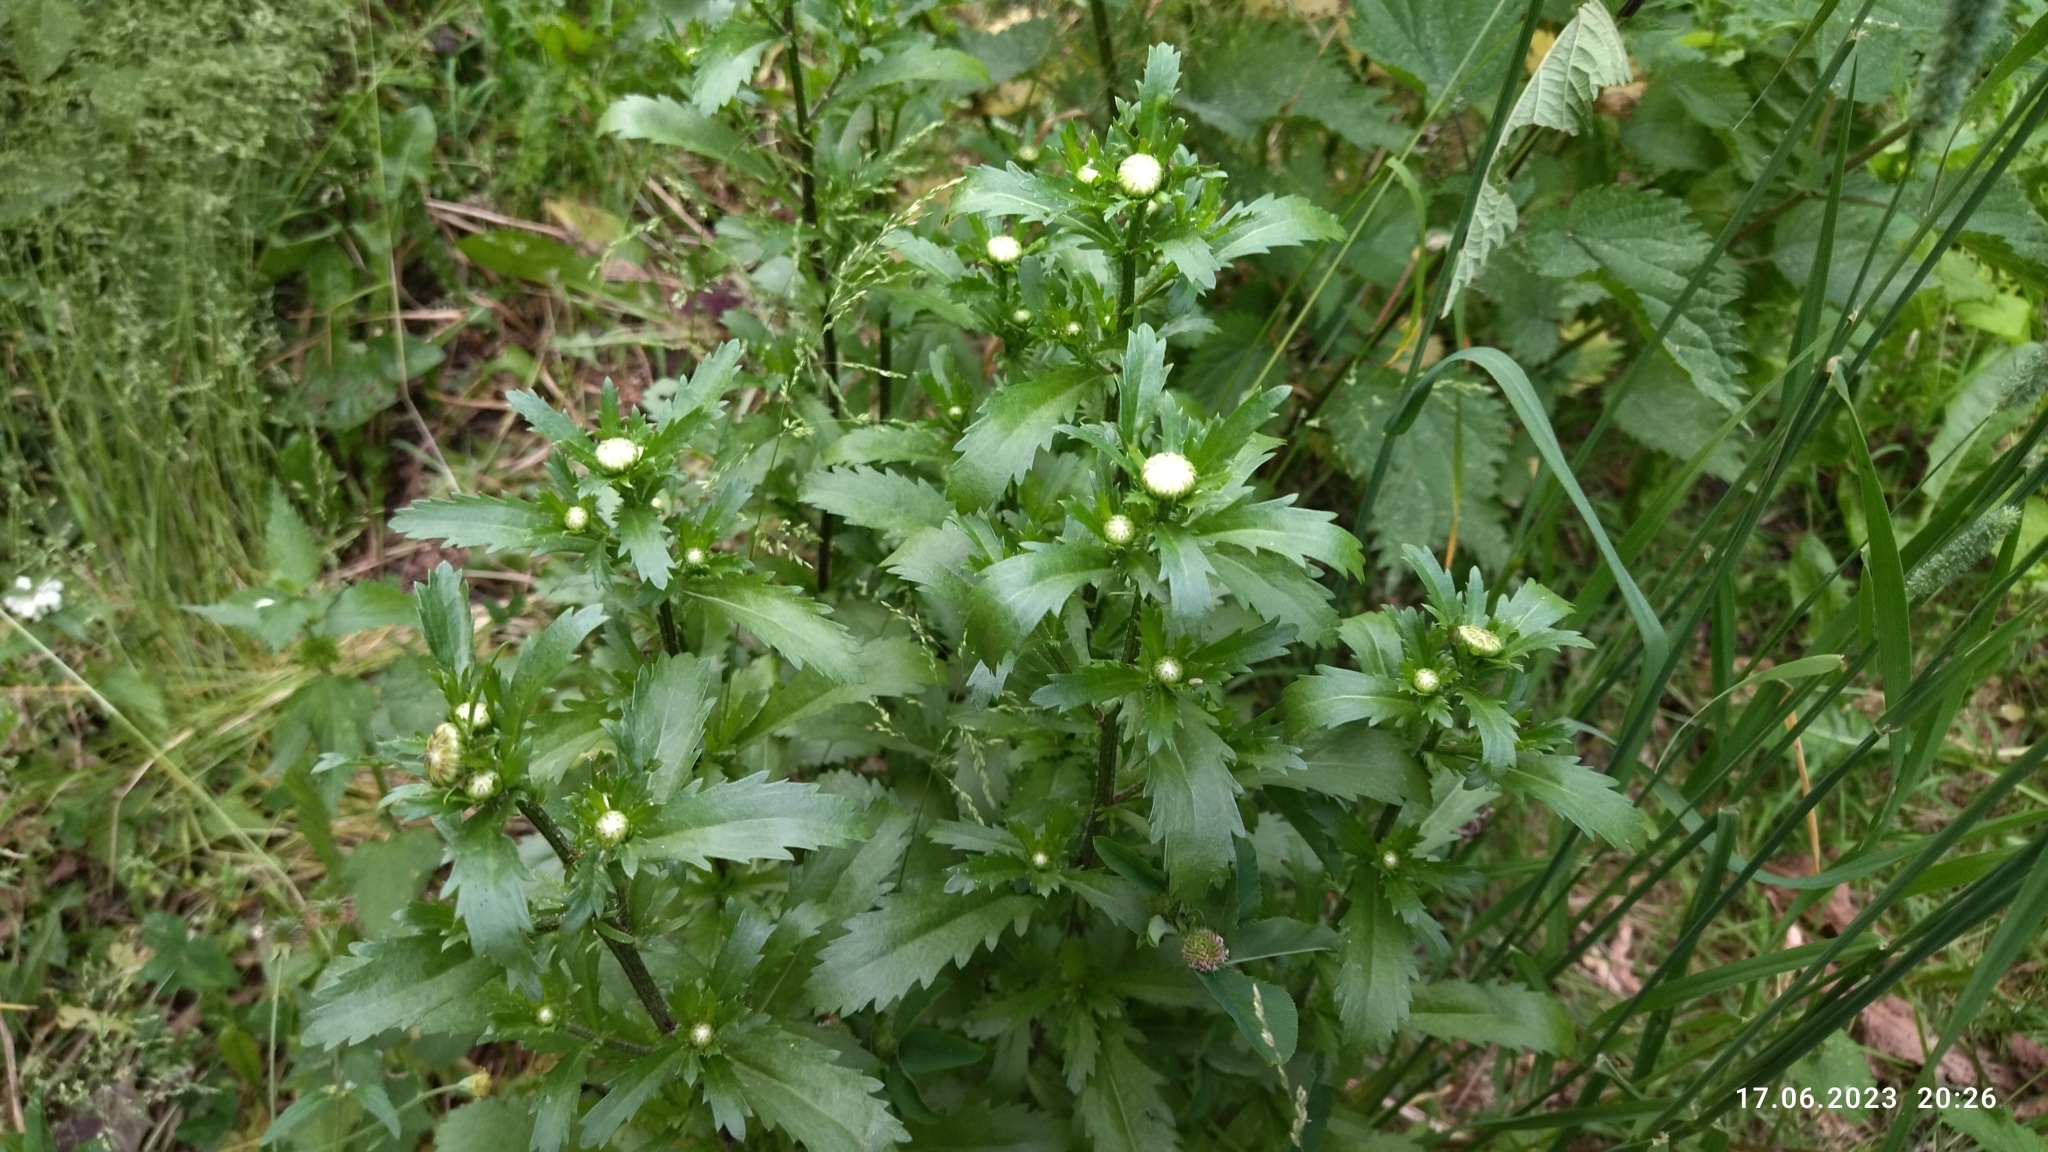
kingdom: Plantae
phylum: Tracheophyta
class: Magnoliopsida
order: Asterales
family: Asteraceae
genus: Leucanthemum
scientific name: Leucanthemum vulgare
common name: Oxeye daisy
